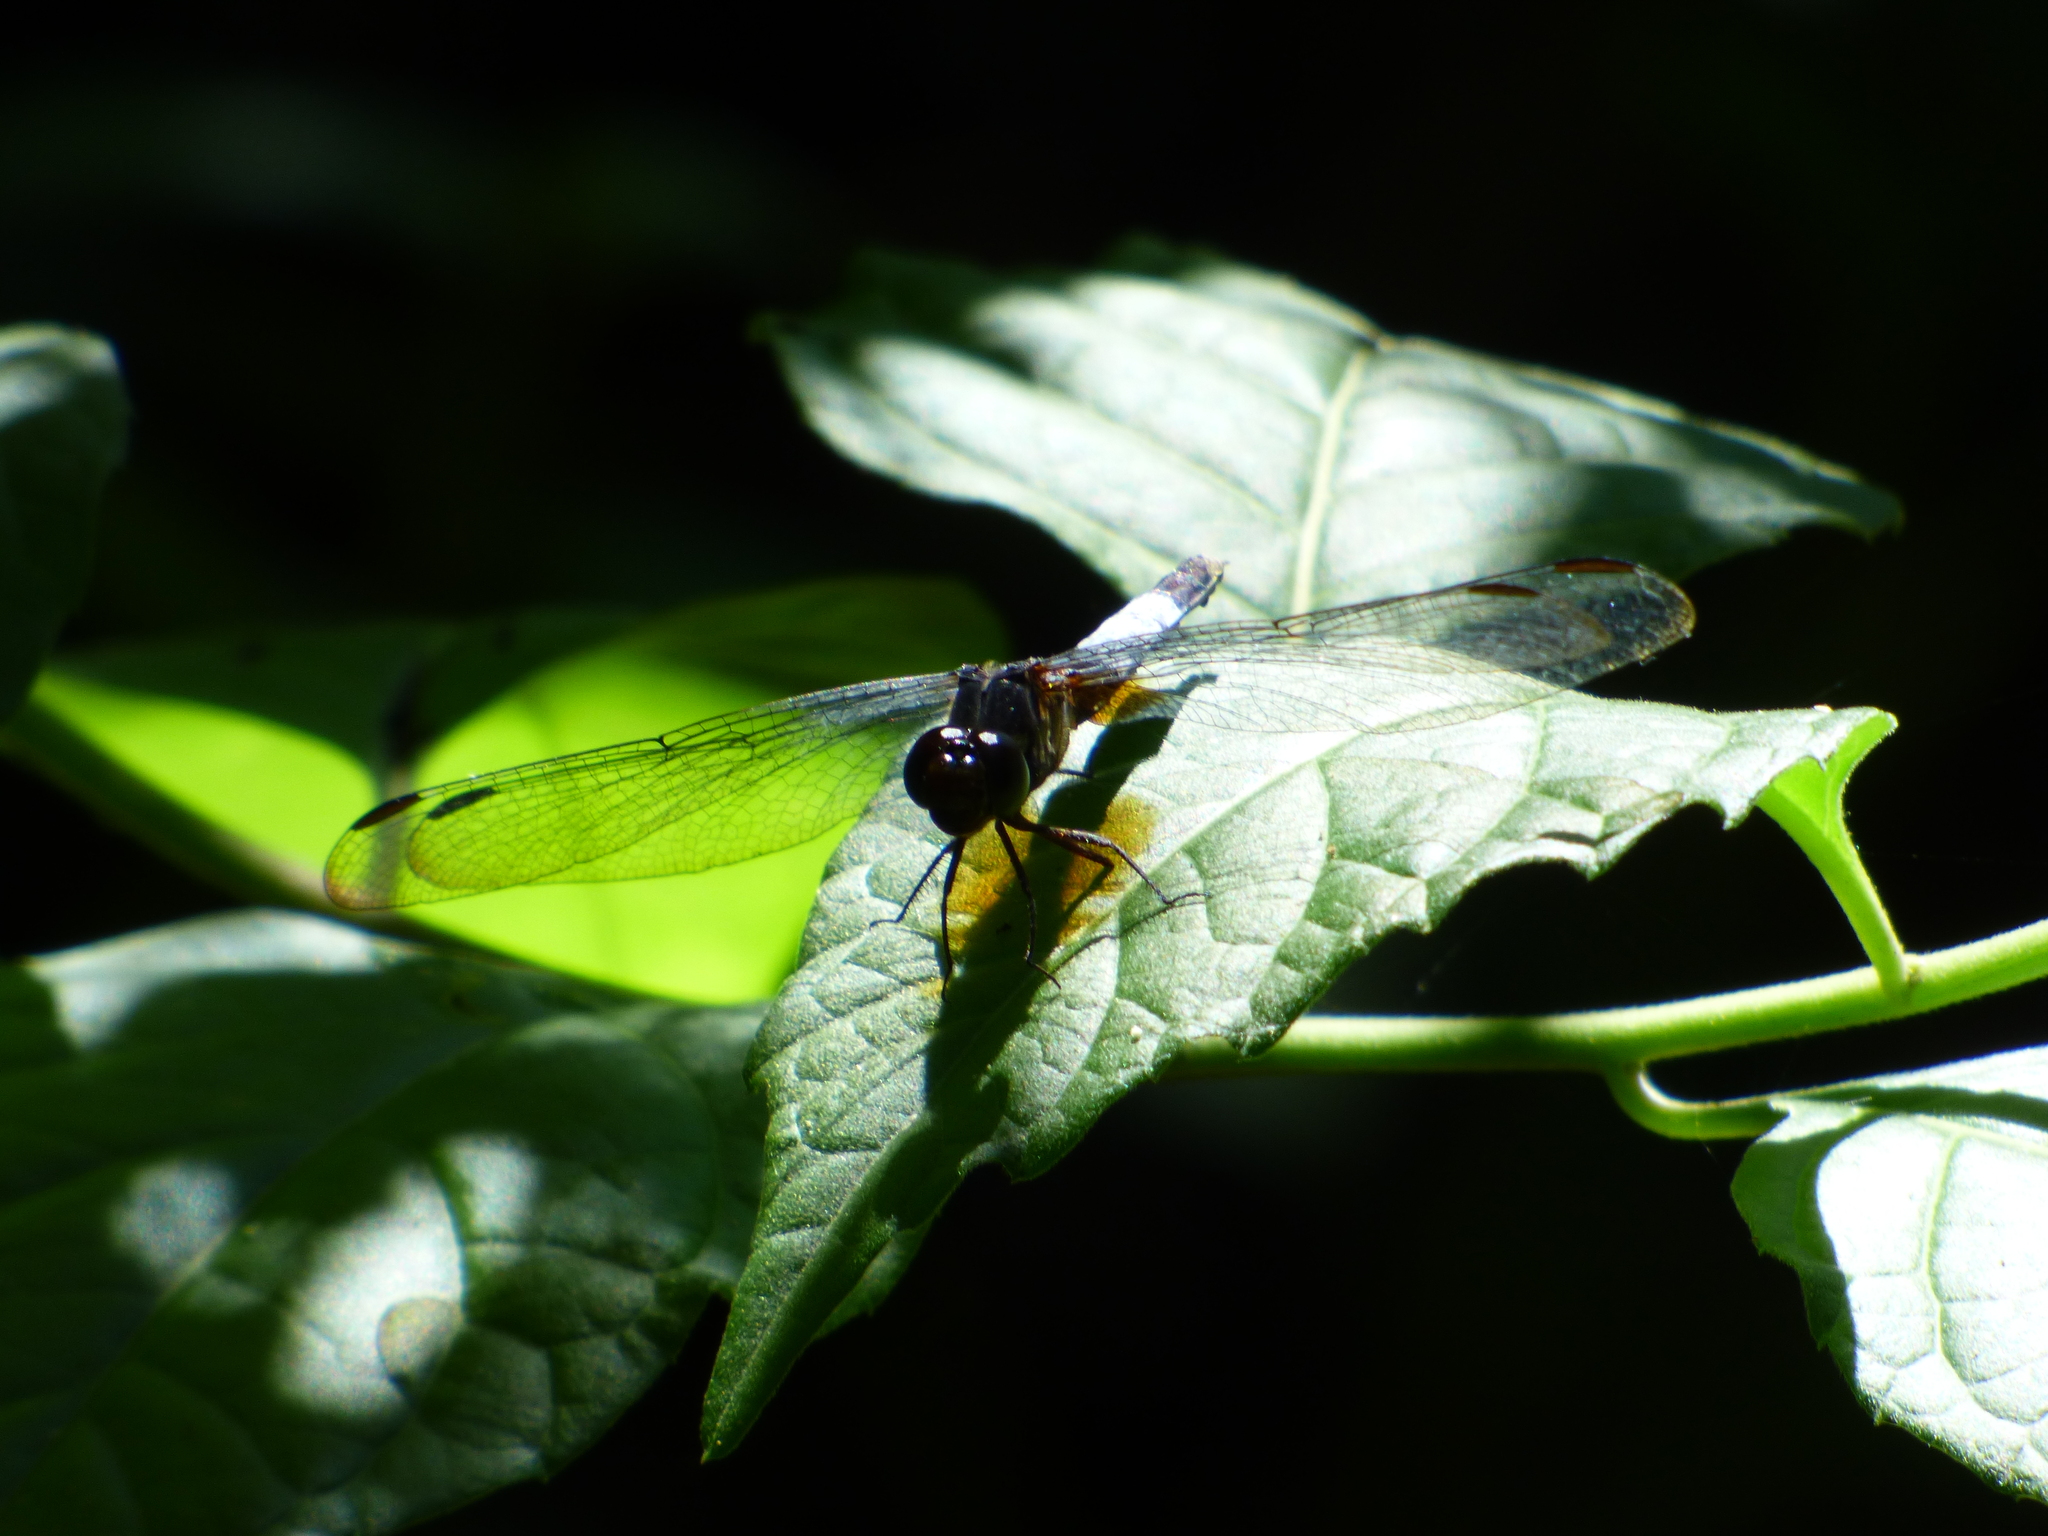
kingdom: Animalia
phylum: Arthropoda
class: Insecta
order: Odonata
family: Libellulidae
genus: Erythrodiplax
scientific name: Erythrodiplax unimaculata
